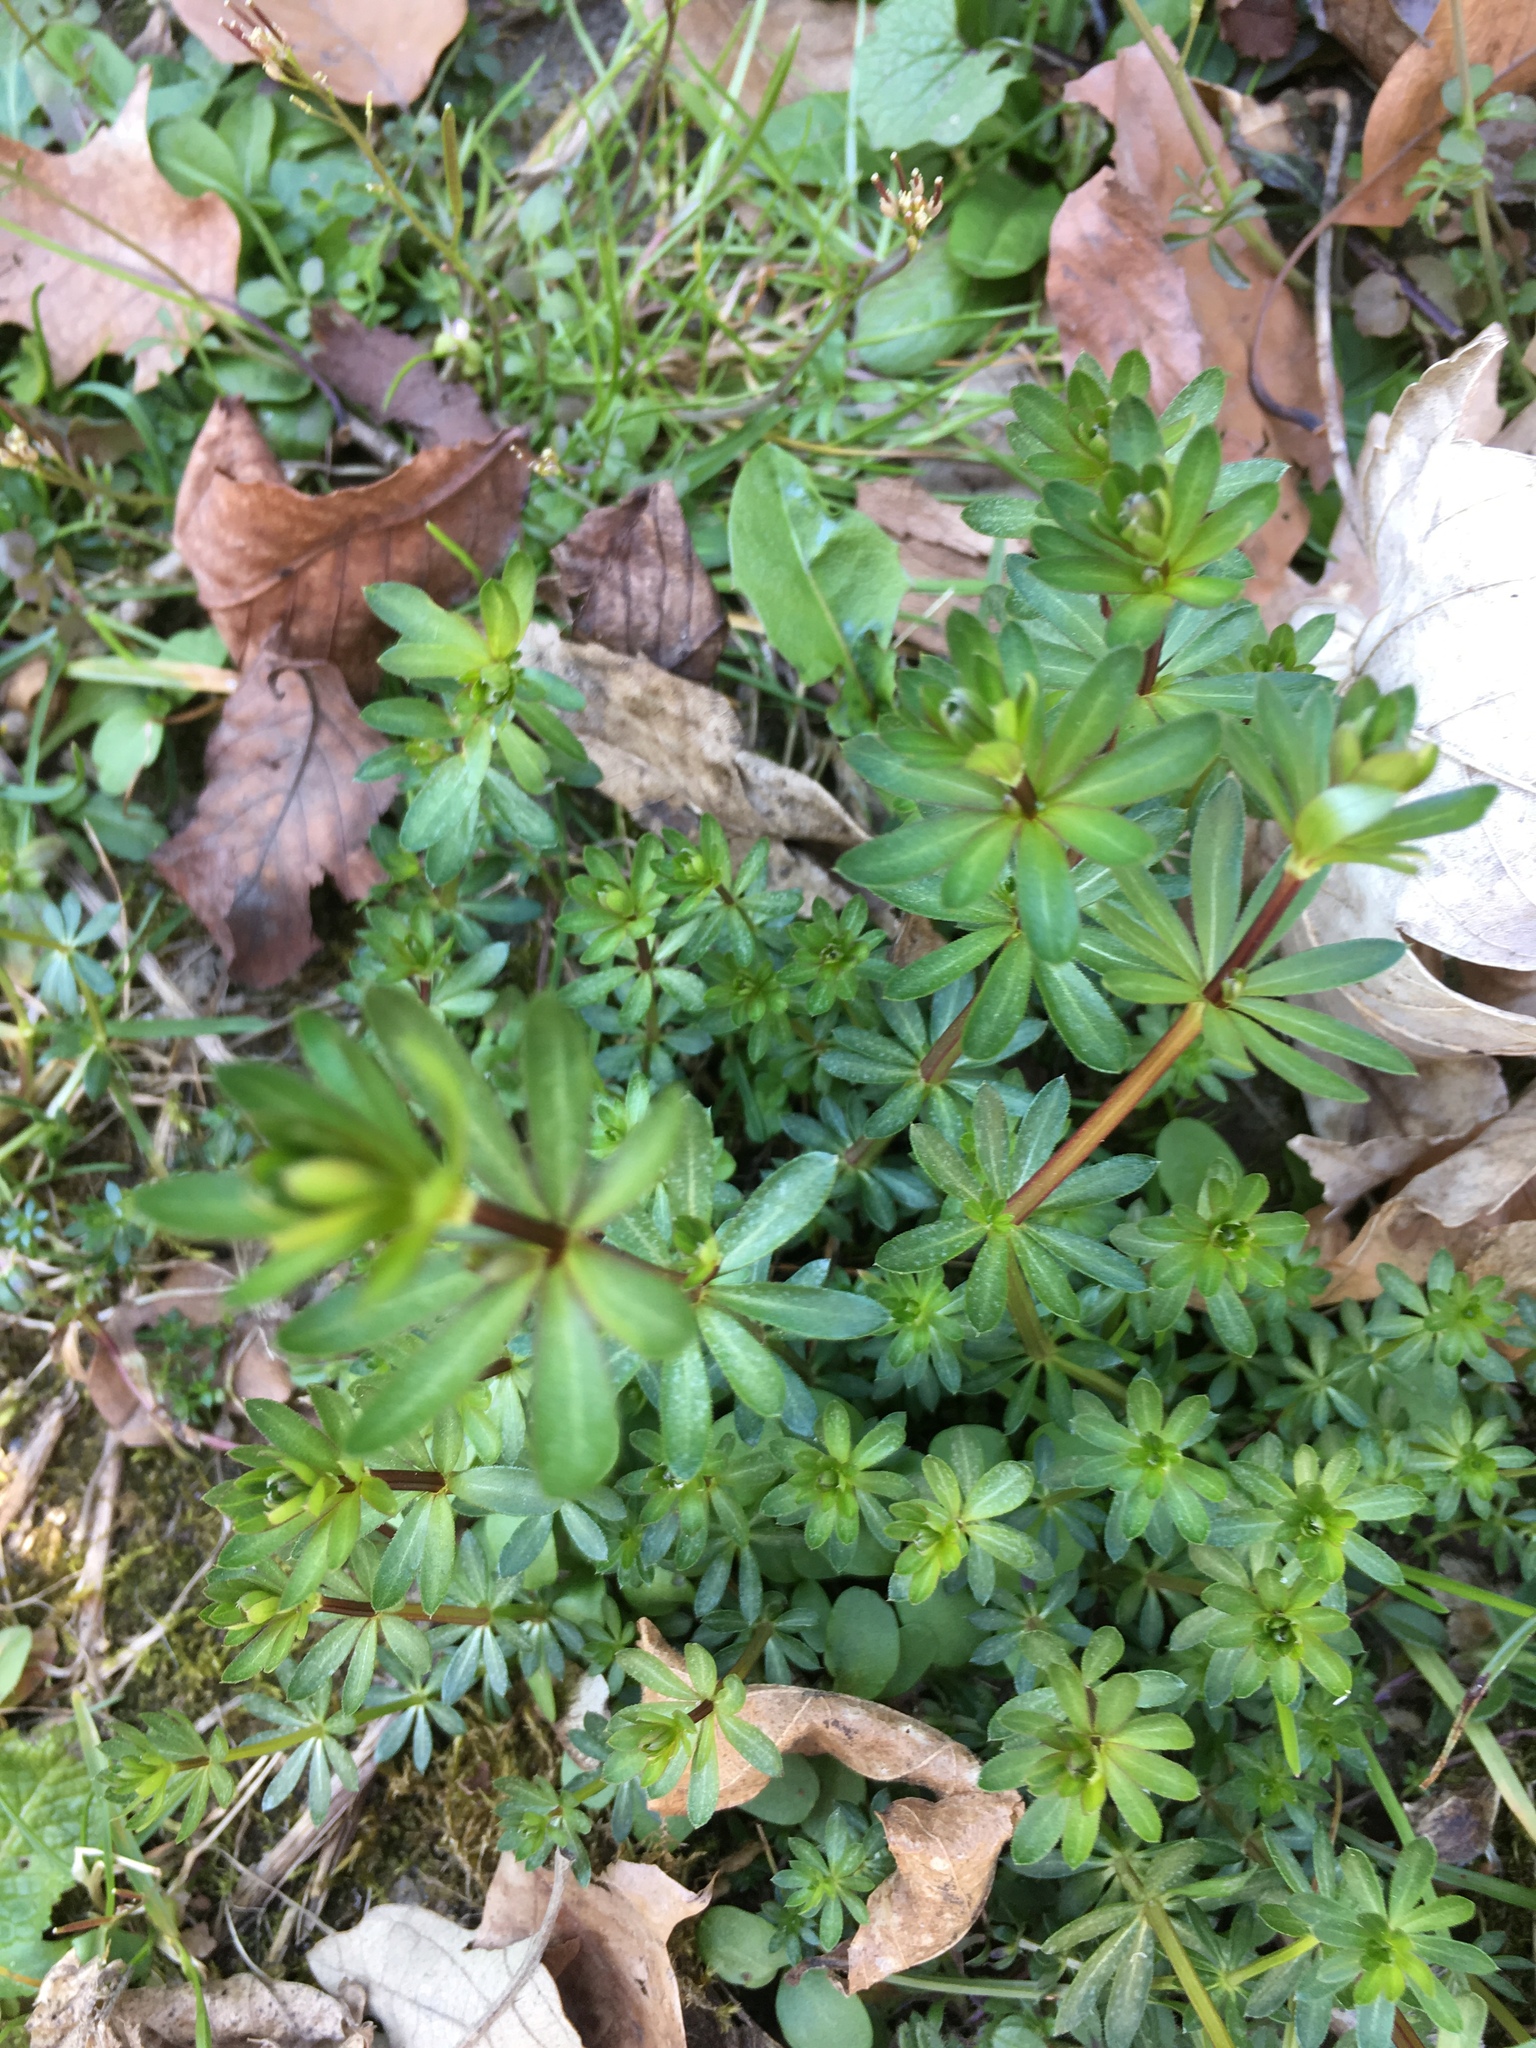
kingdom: Plantae
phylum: Tracheophyta
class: Magnoliopsida
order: Gentianales
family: Rubiaceae
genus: Galium
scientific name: Galium mollugo
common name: Hedge bedstraw
